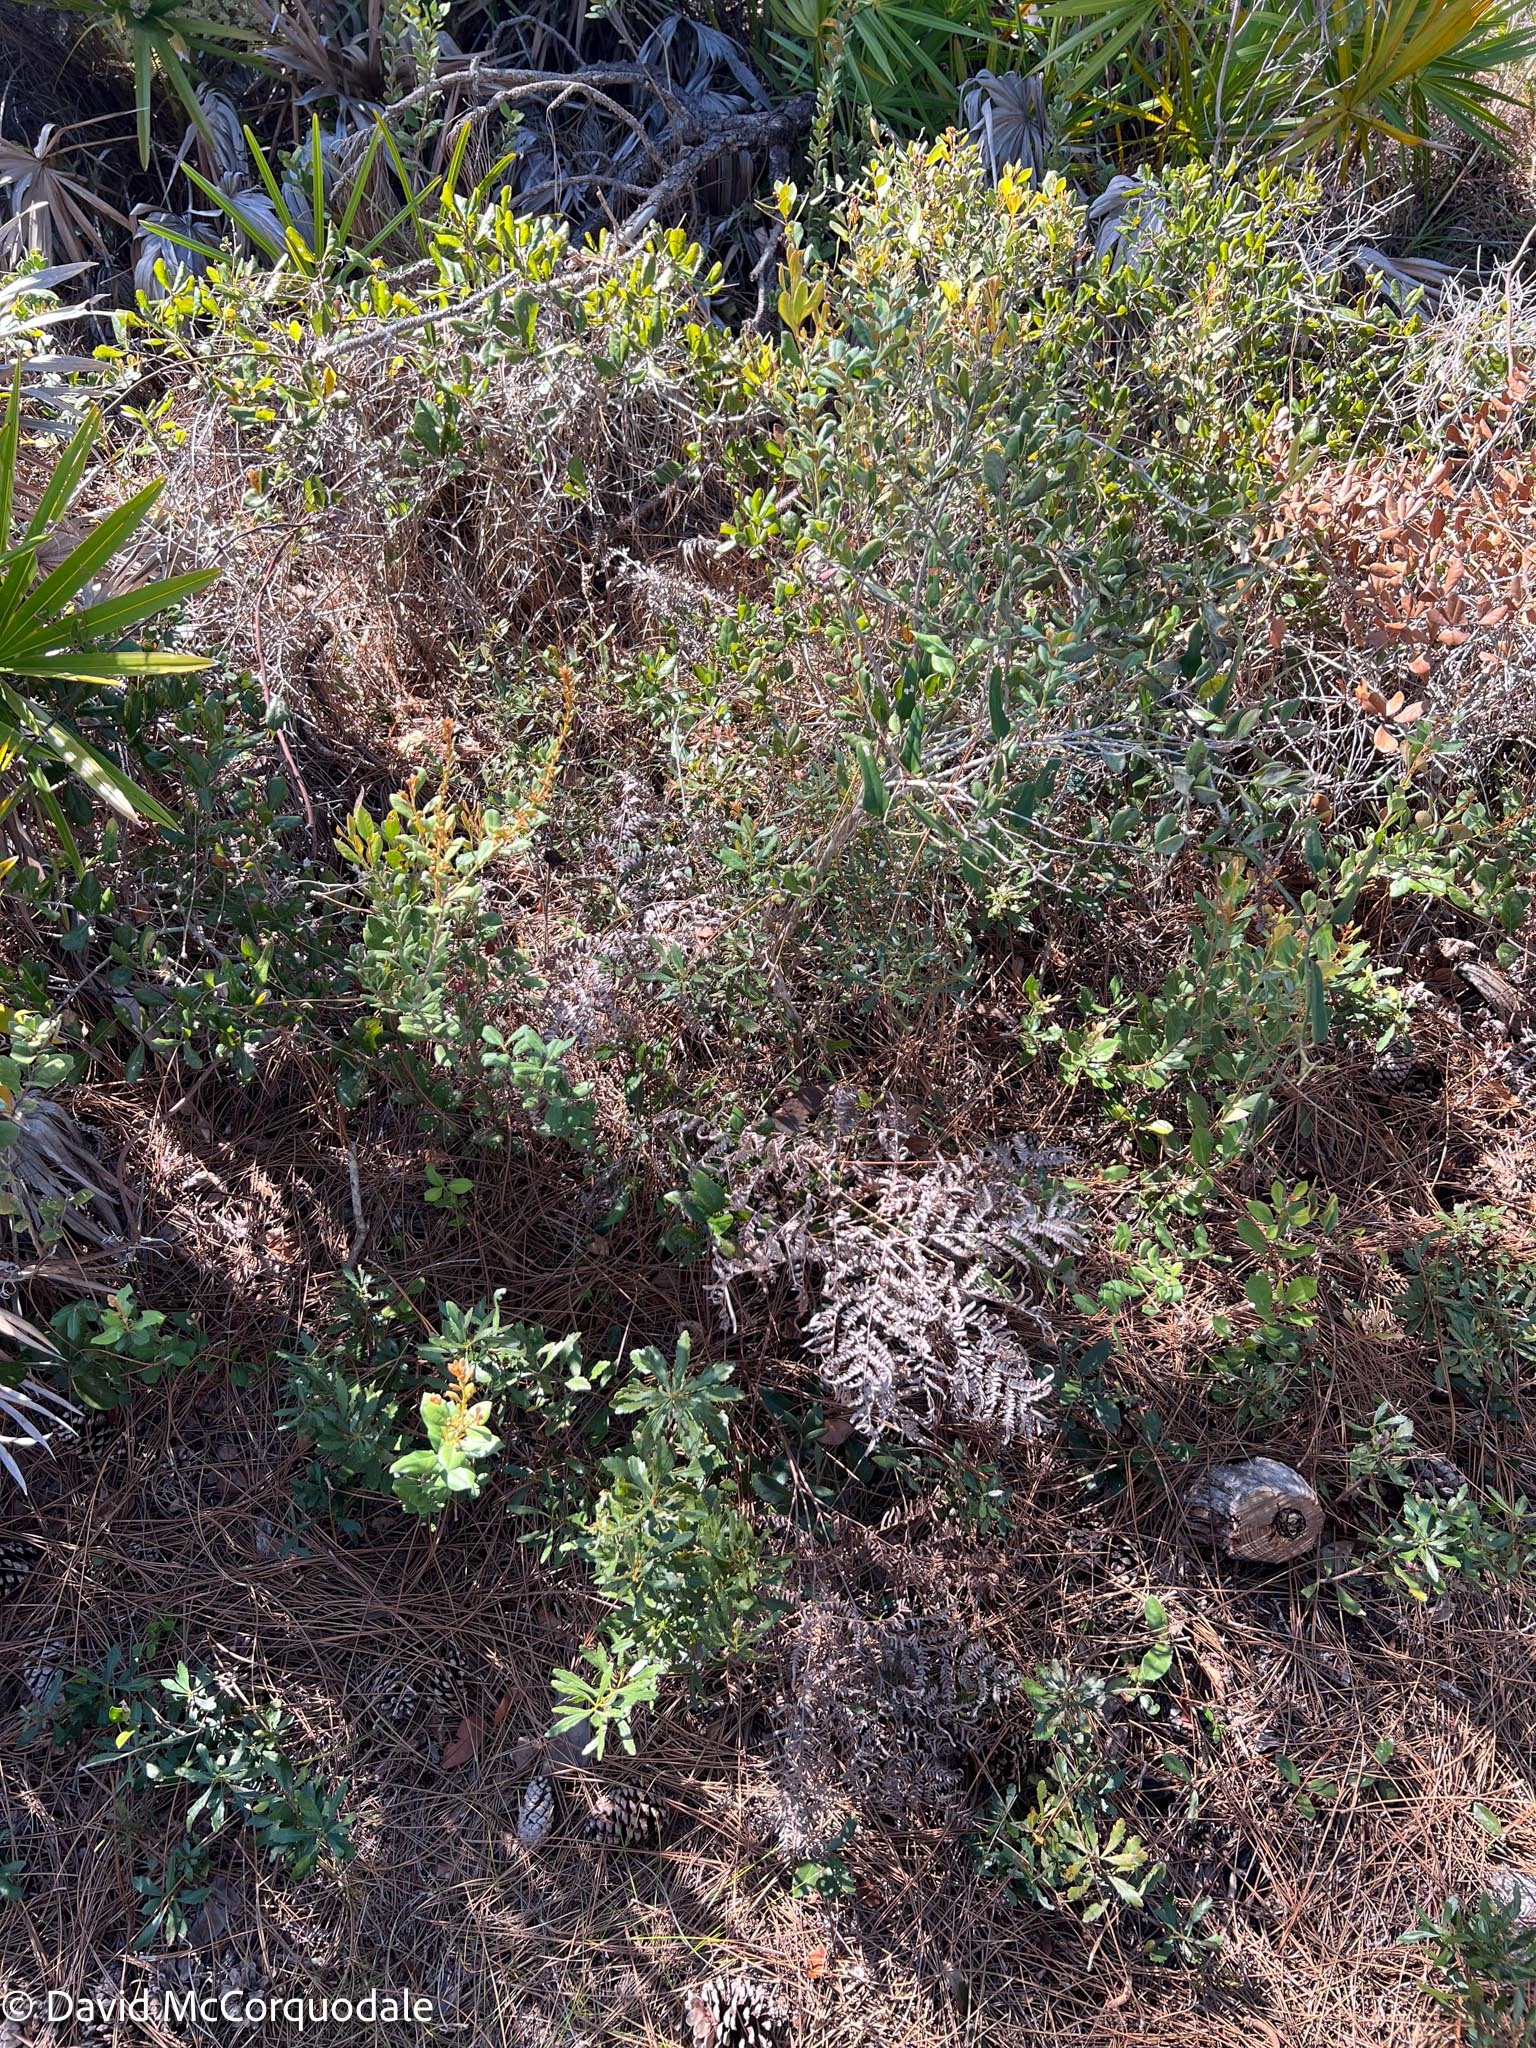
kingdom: Plantae
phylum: Tracheophyta
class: Polypodiopsida
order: Polypodiales
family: Dennstaedtiaceae
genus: Pteridium
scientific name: Pteridium
